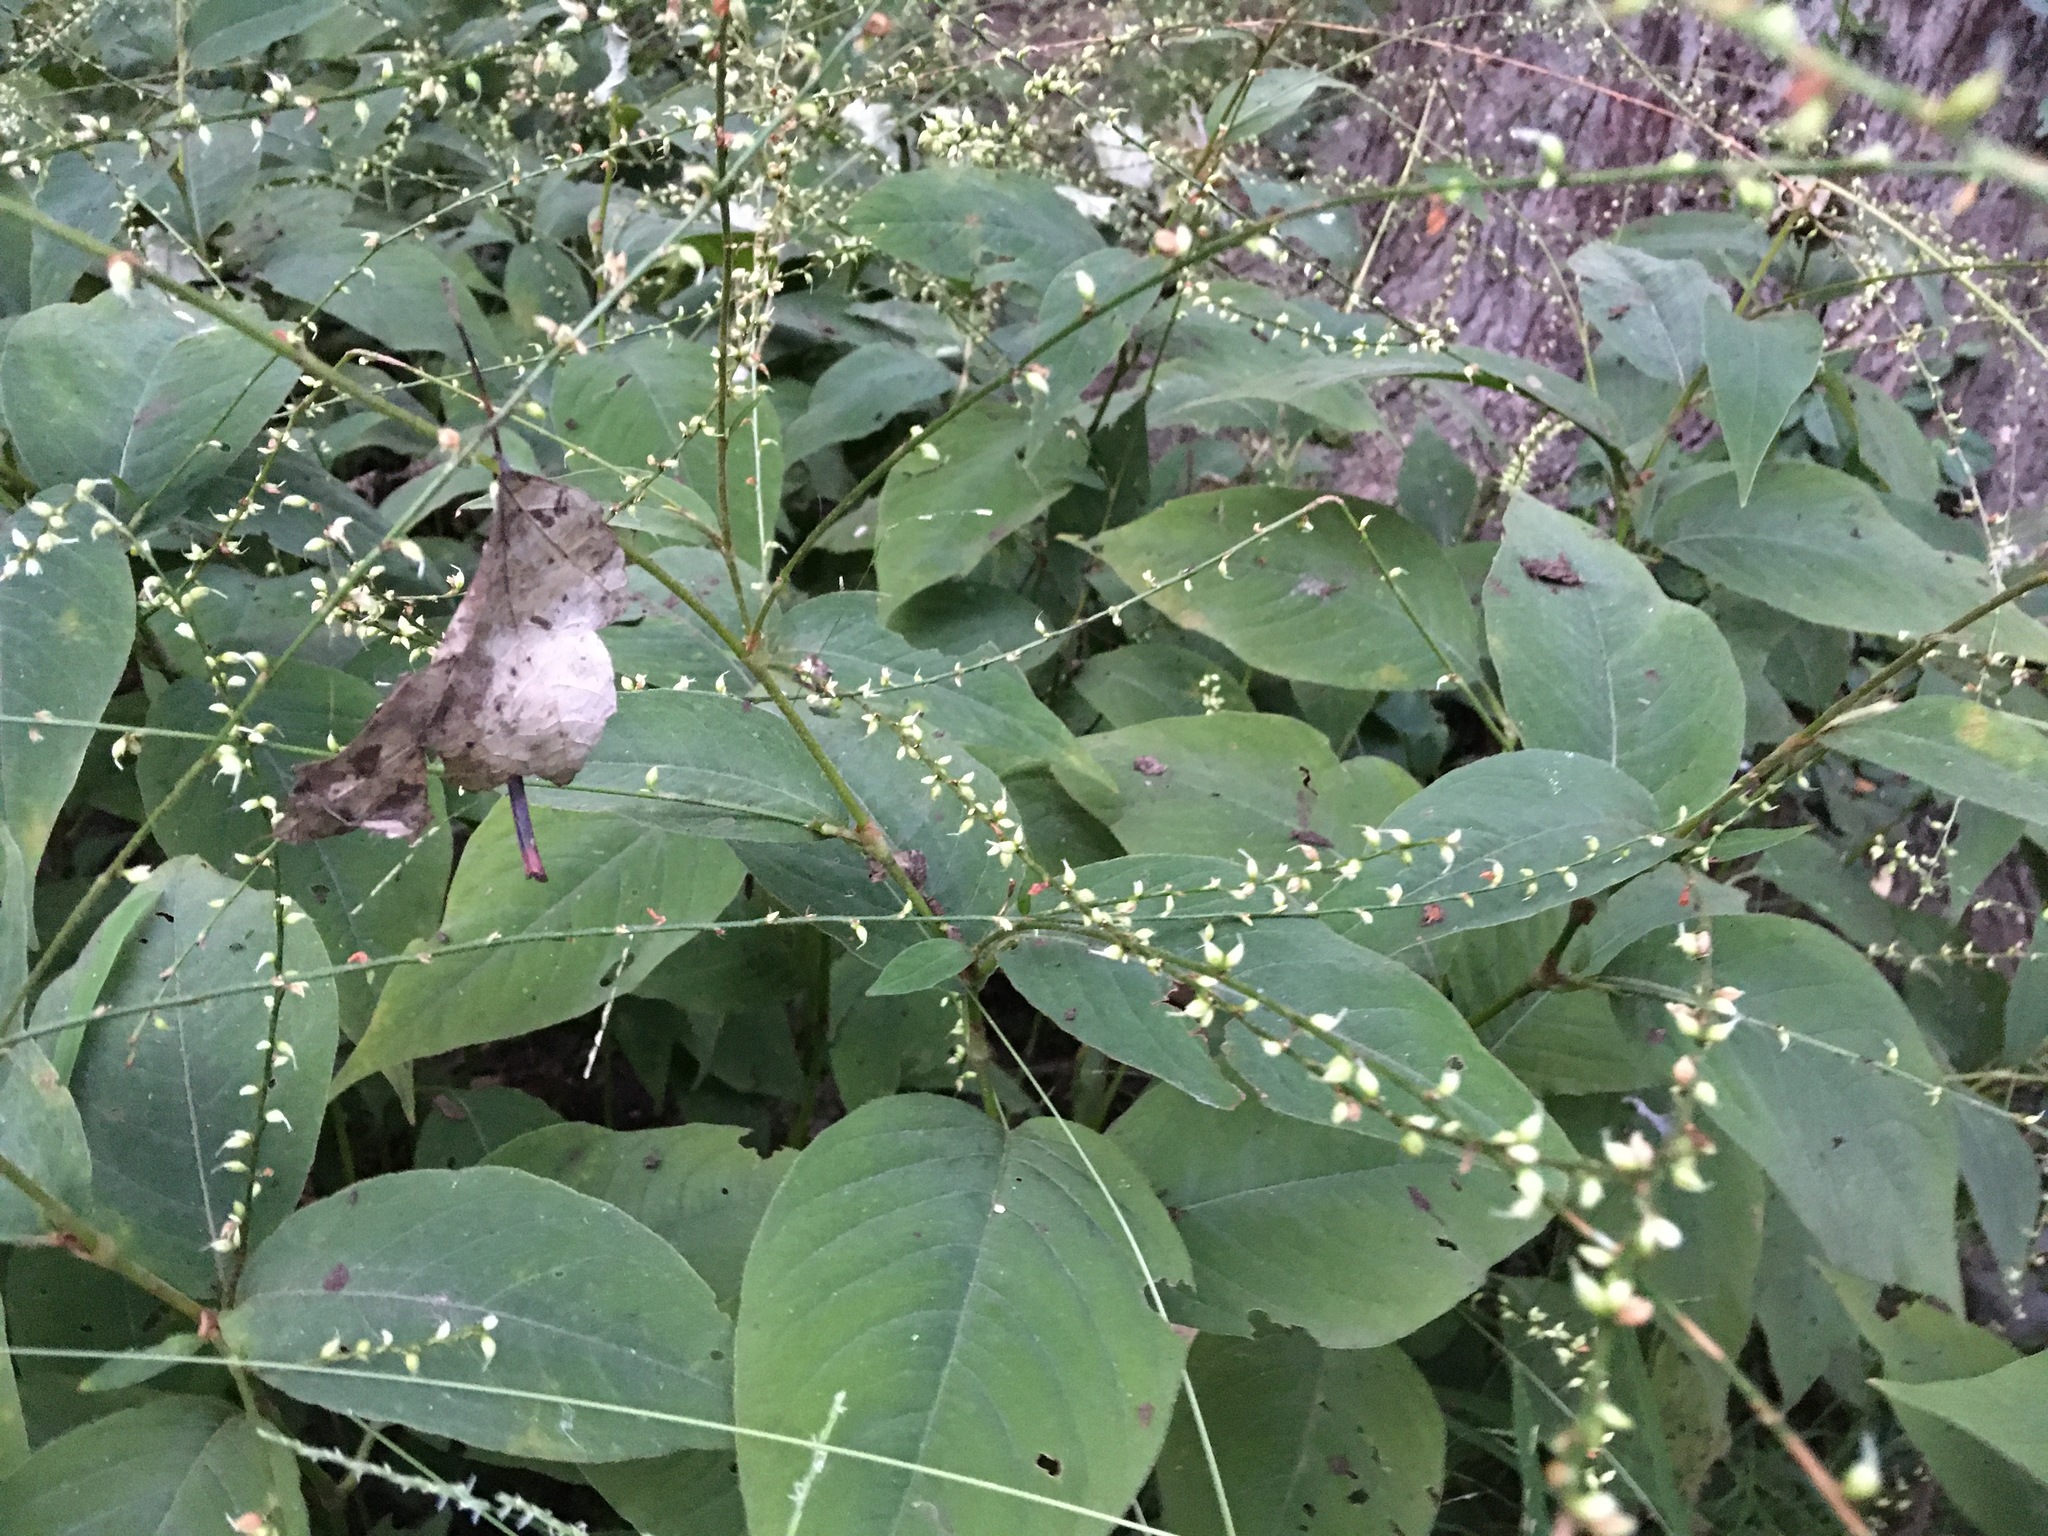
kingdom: Plantae
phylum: Tracheophyta
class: Magnoliopsida
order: Caryophyllales
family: Polygonaceae
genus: Persicaria
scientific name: Persicaria virginiana
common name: Jumpseed
